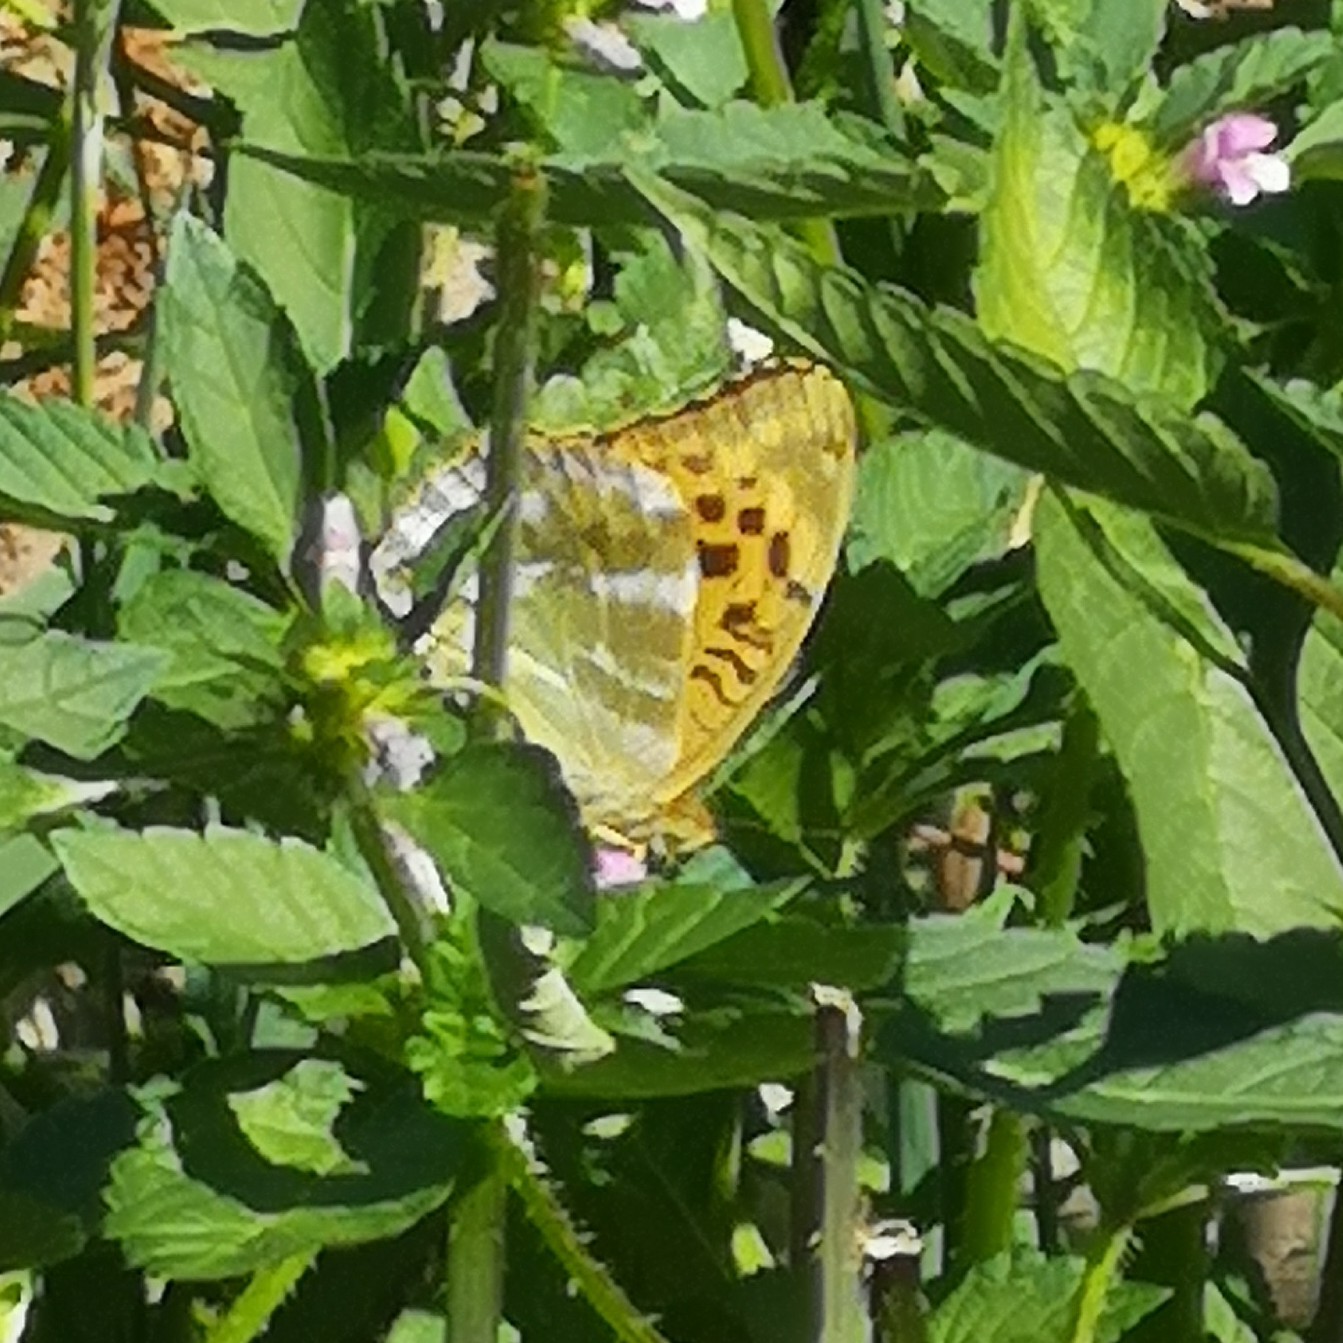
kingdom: Animalia
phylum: Arthropoda
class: Insecta
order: Lepidoptera
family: Nymphalidae
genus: Argynnis
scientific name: Argynnis paphia
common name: Silver-washed fritillary
